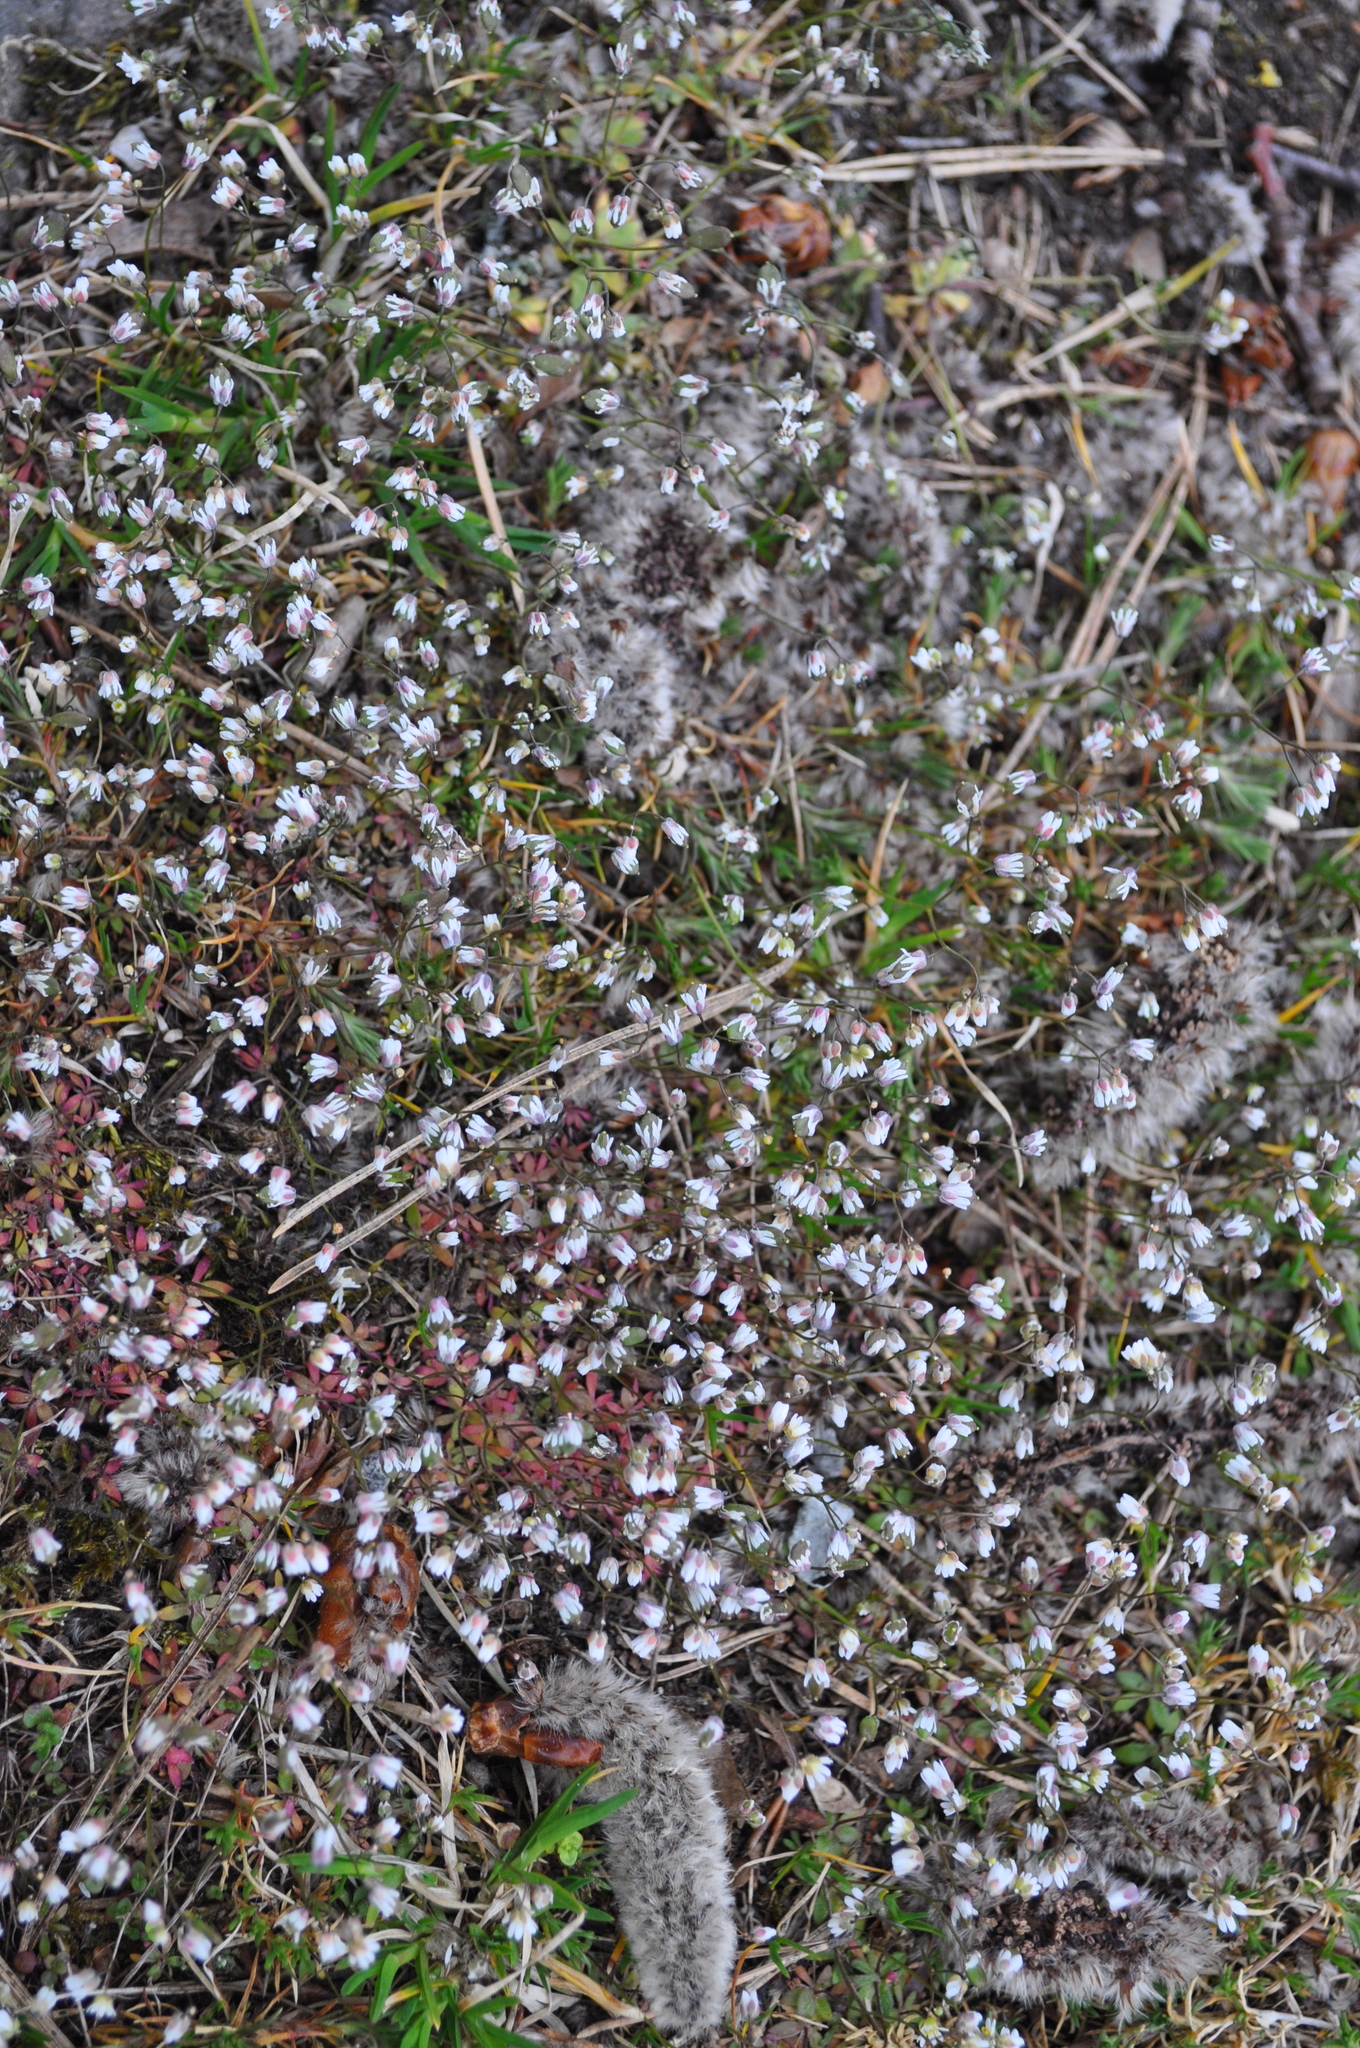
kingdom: Plantae
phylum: Tracheophyta
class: Magnoliopsida
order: Brassicales
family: Brassicaceae
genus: Draba
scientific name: Draba verna
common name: Spring draba
